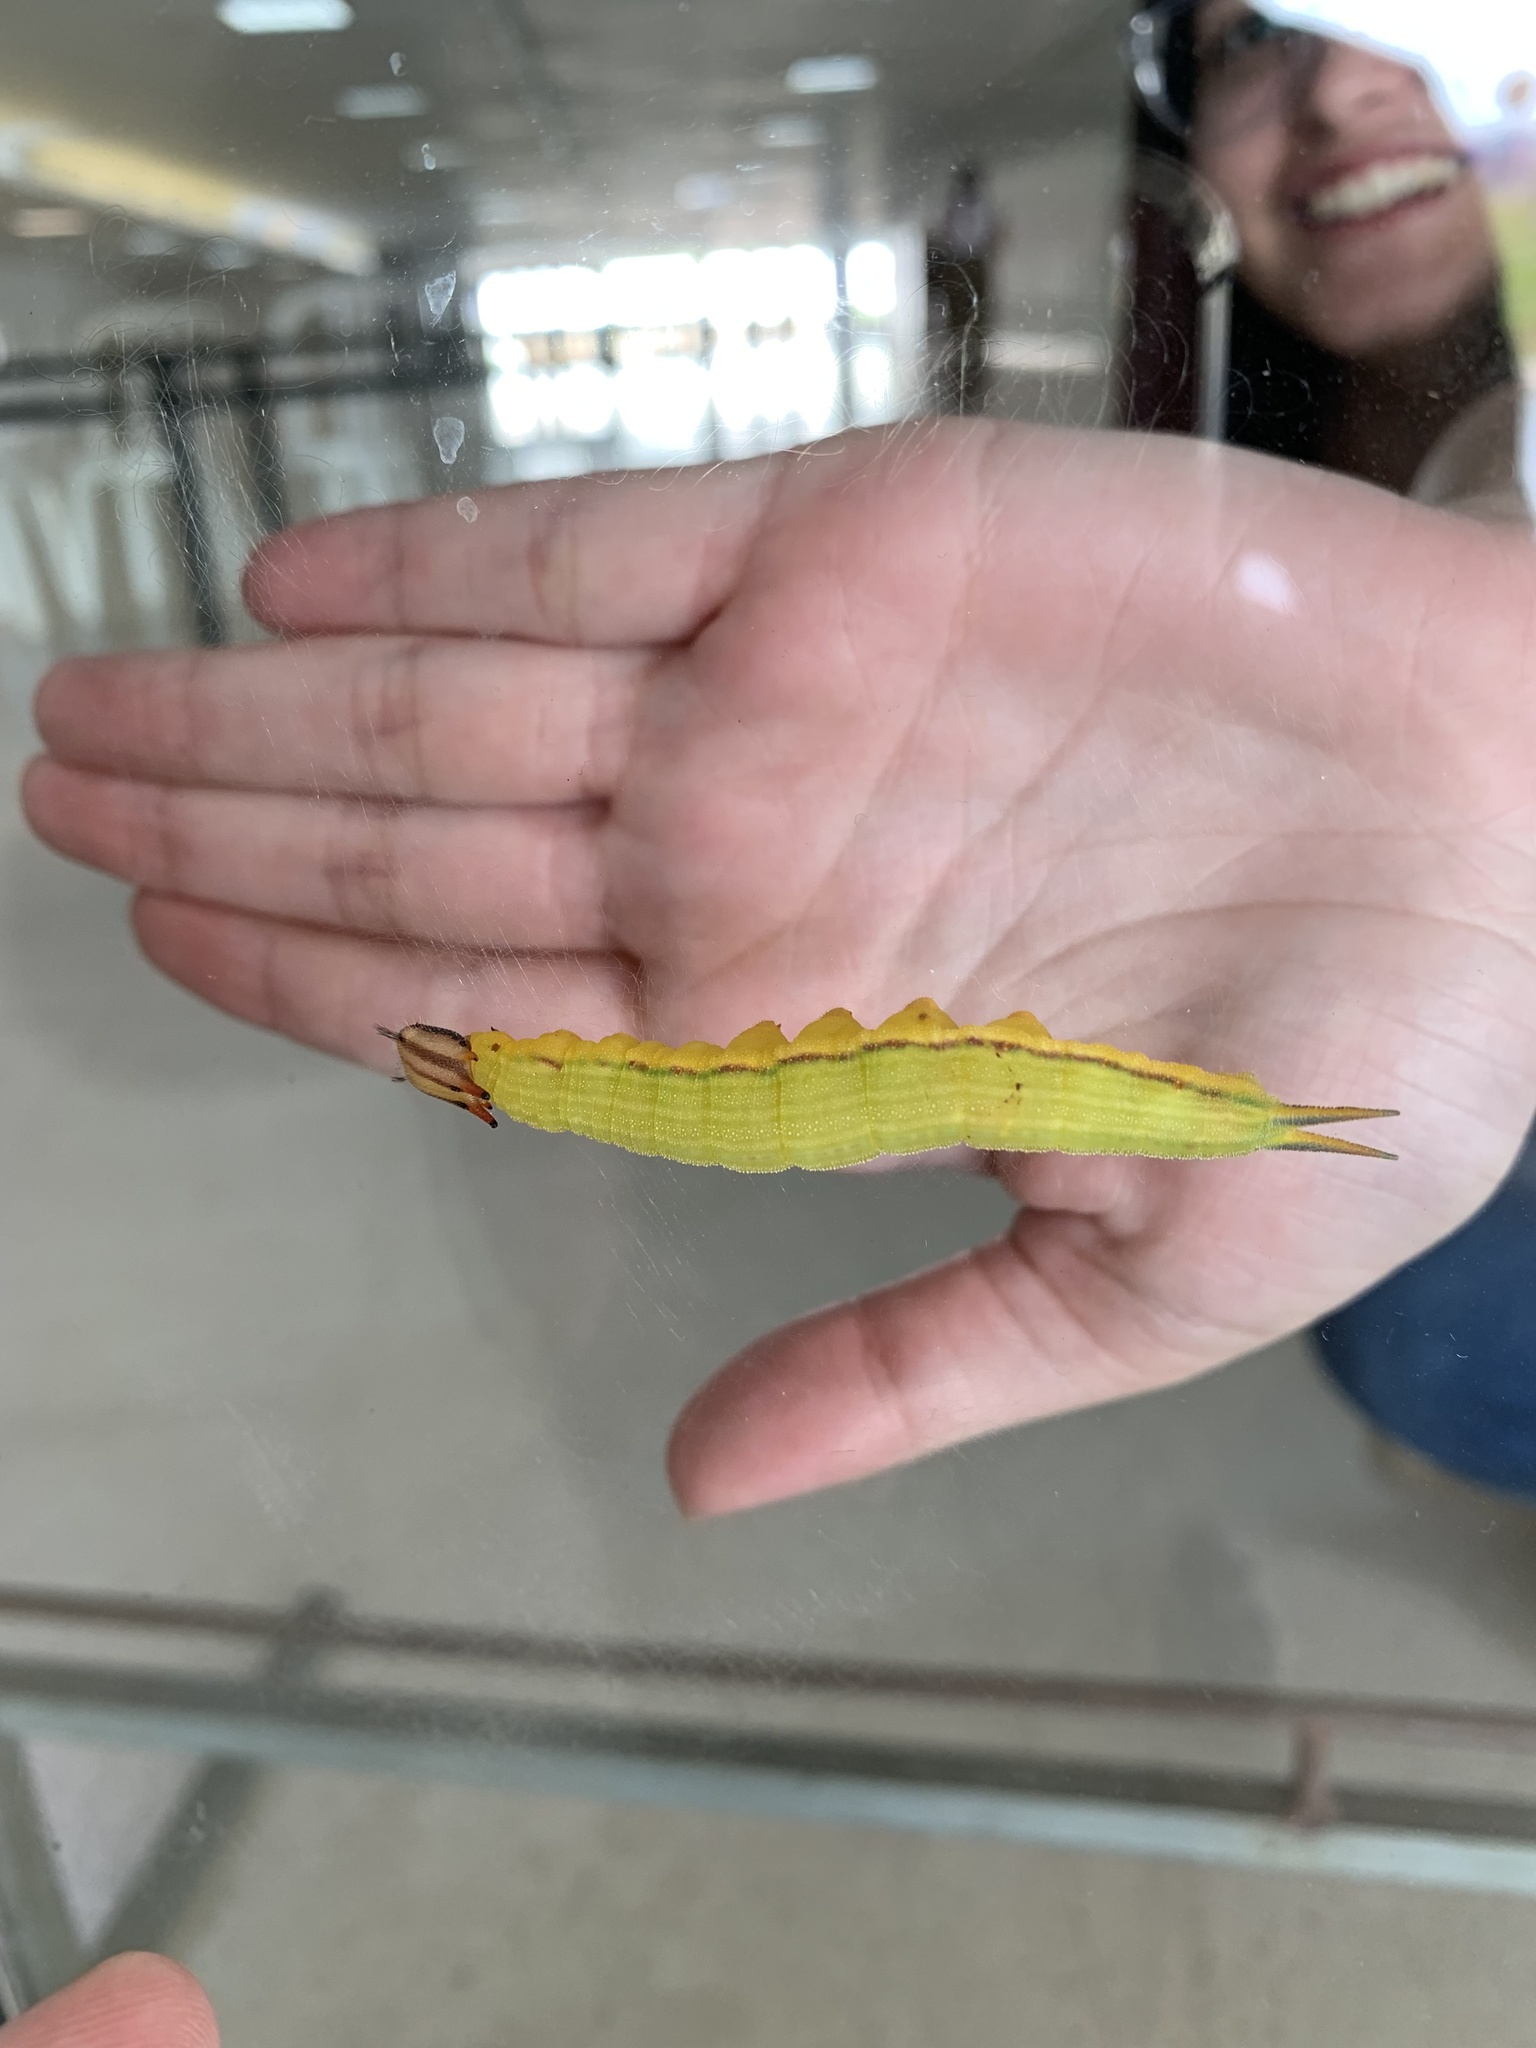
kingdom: Animalia
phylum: Arthropoda
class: Insecta
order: Lepidoptera
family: Nymphalidae
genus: Opsiphanes
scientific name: Opsiphanes invirae
